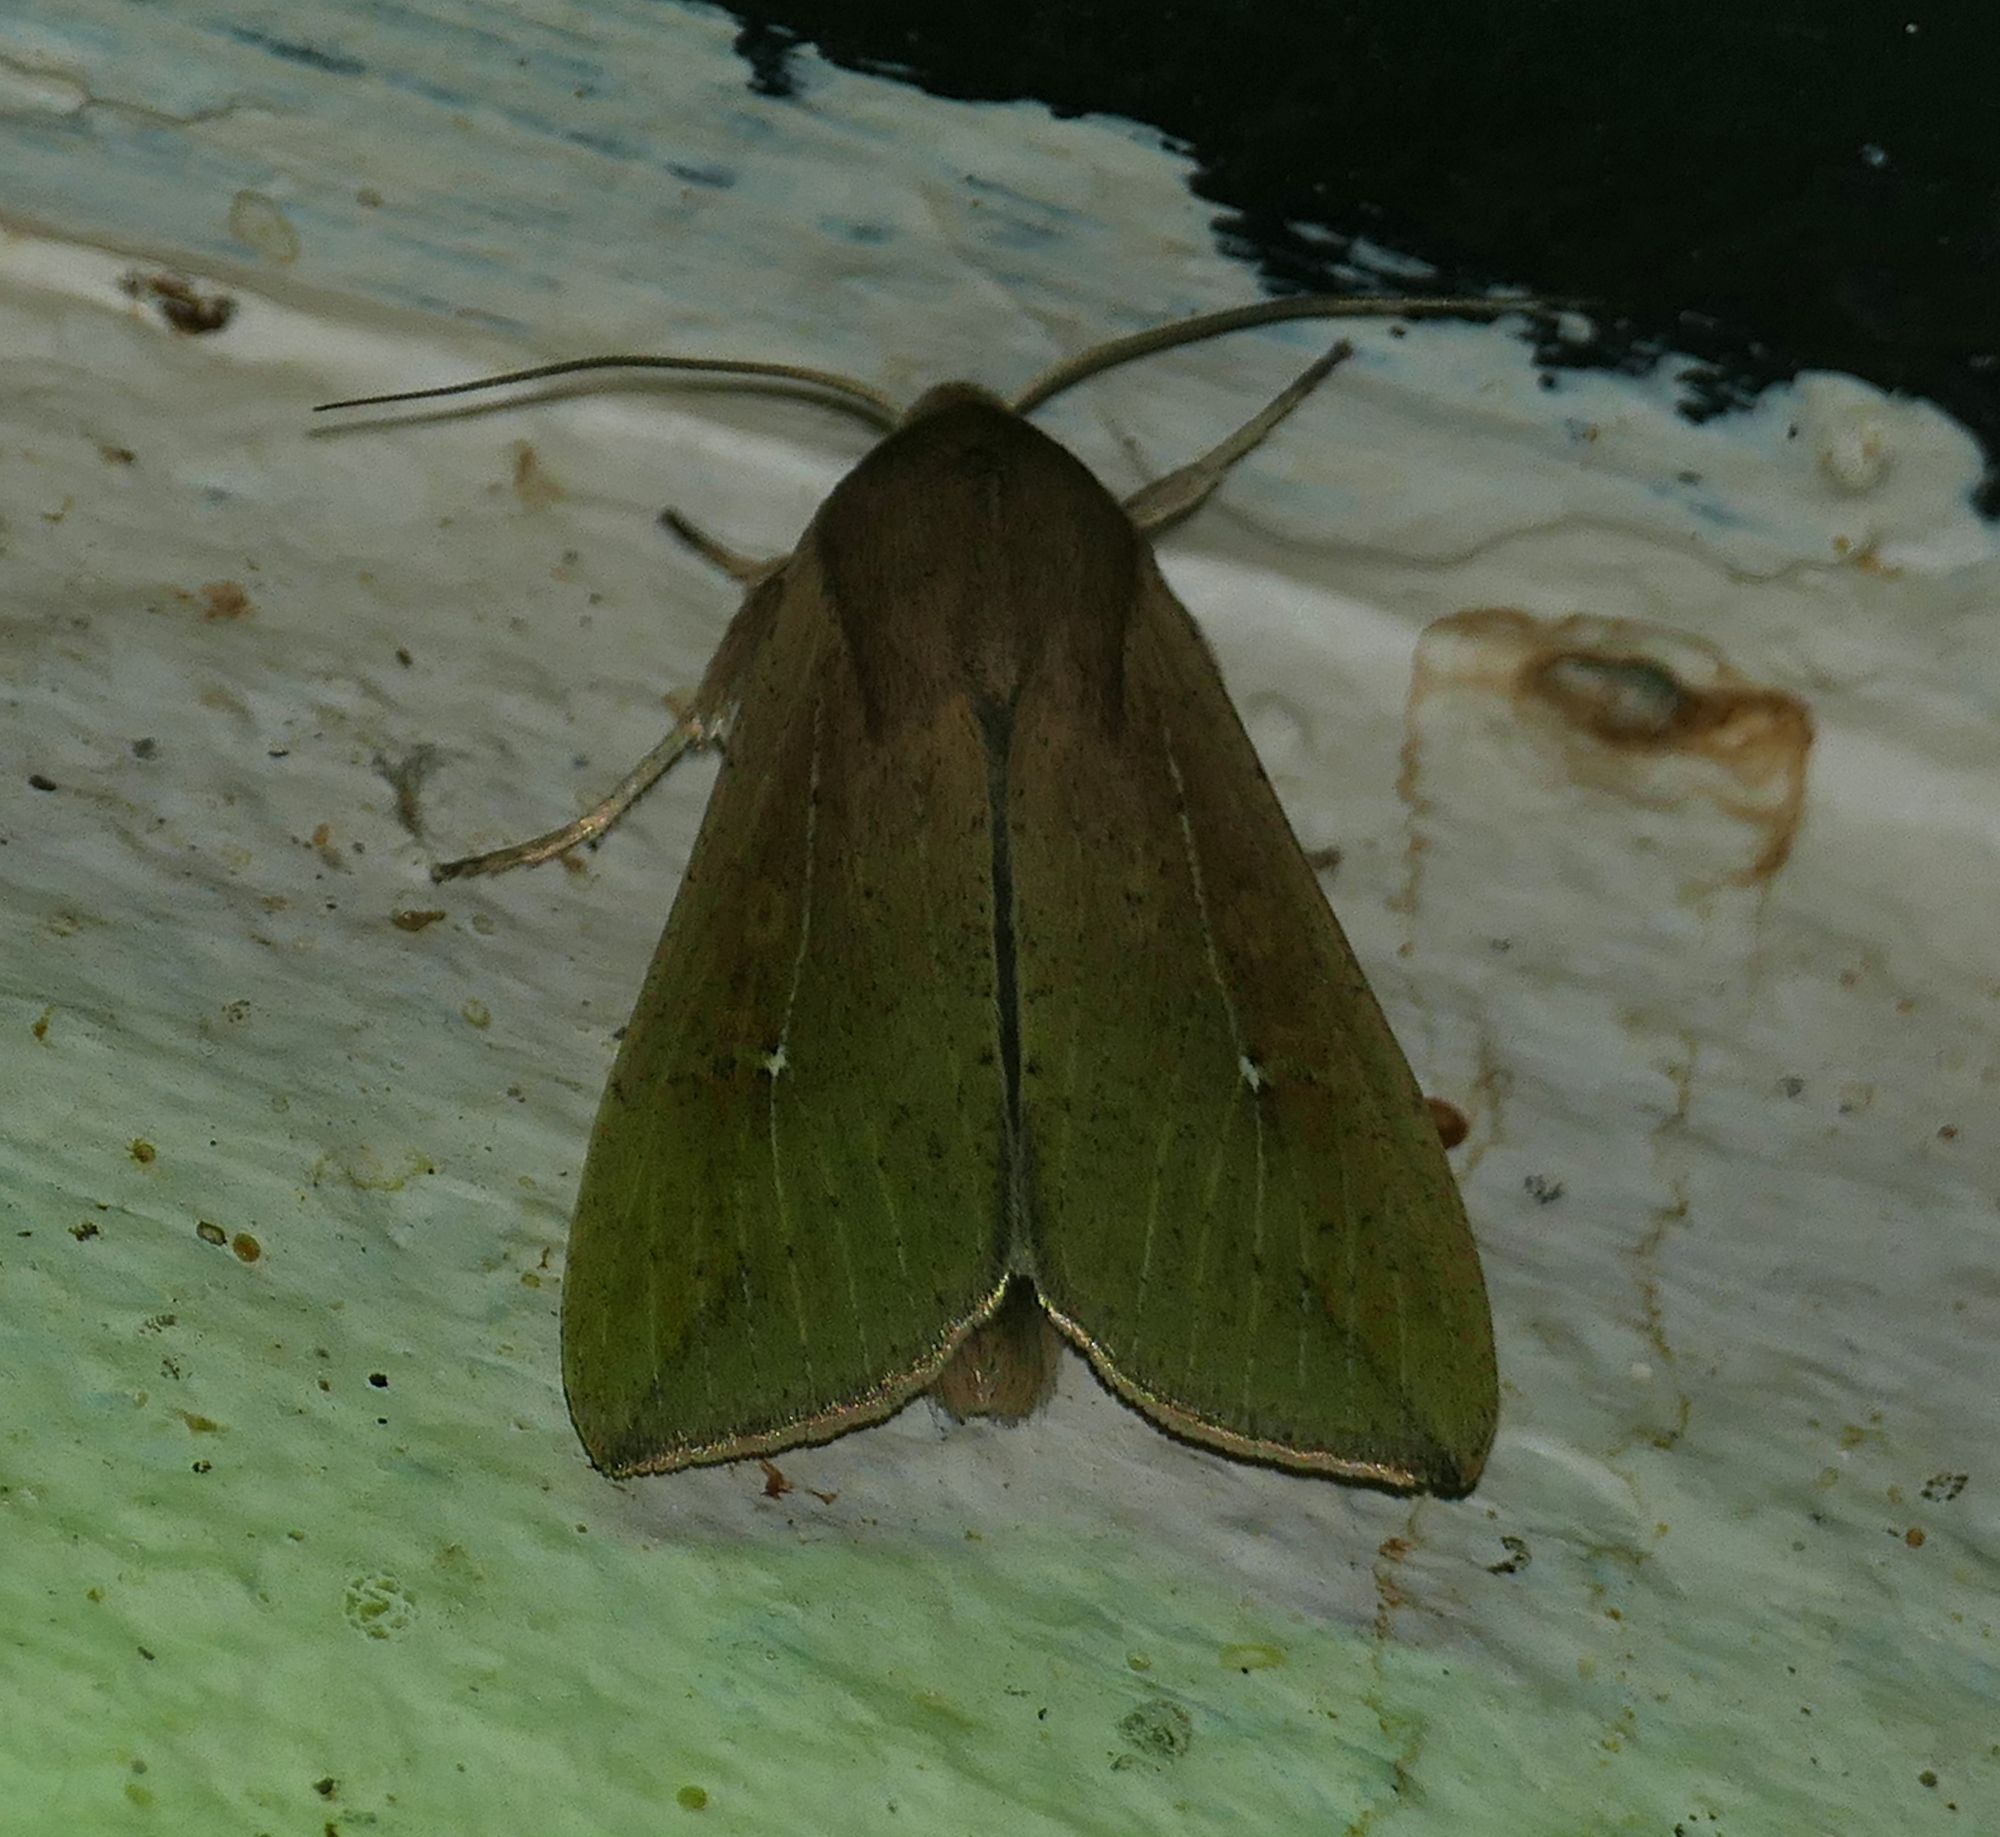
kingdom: Animalia
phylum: Arthropoda
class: Insecta
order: Lepidoptera
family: Noctuidae
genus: Mythimna
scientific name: Mythimna unipuncta
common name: White-speck
